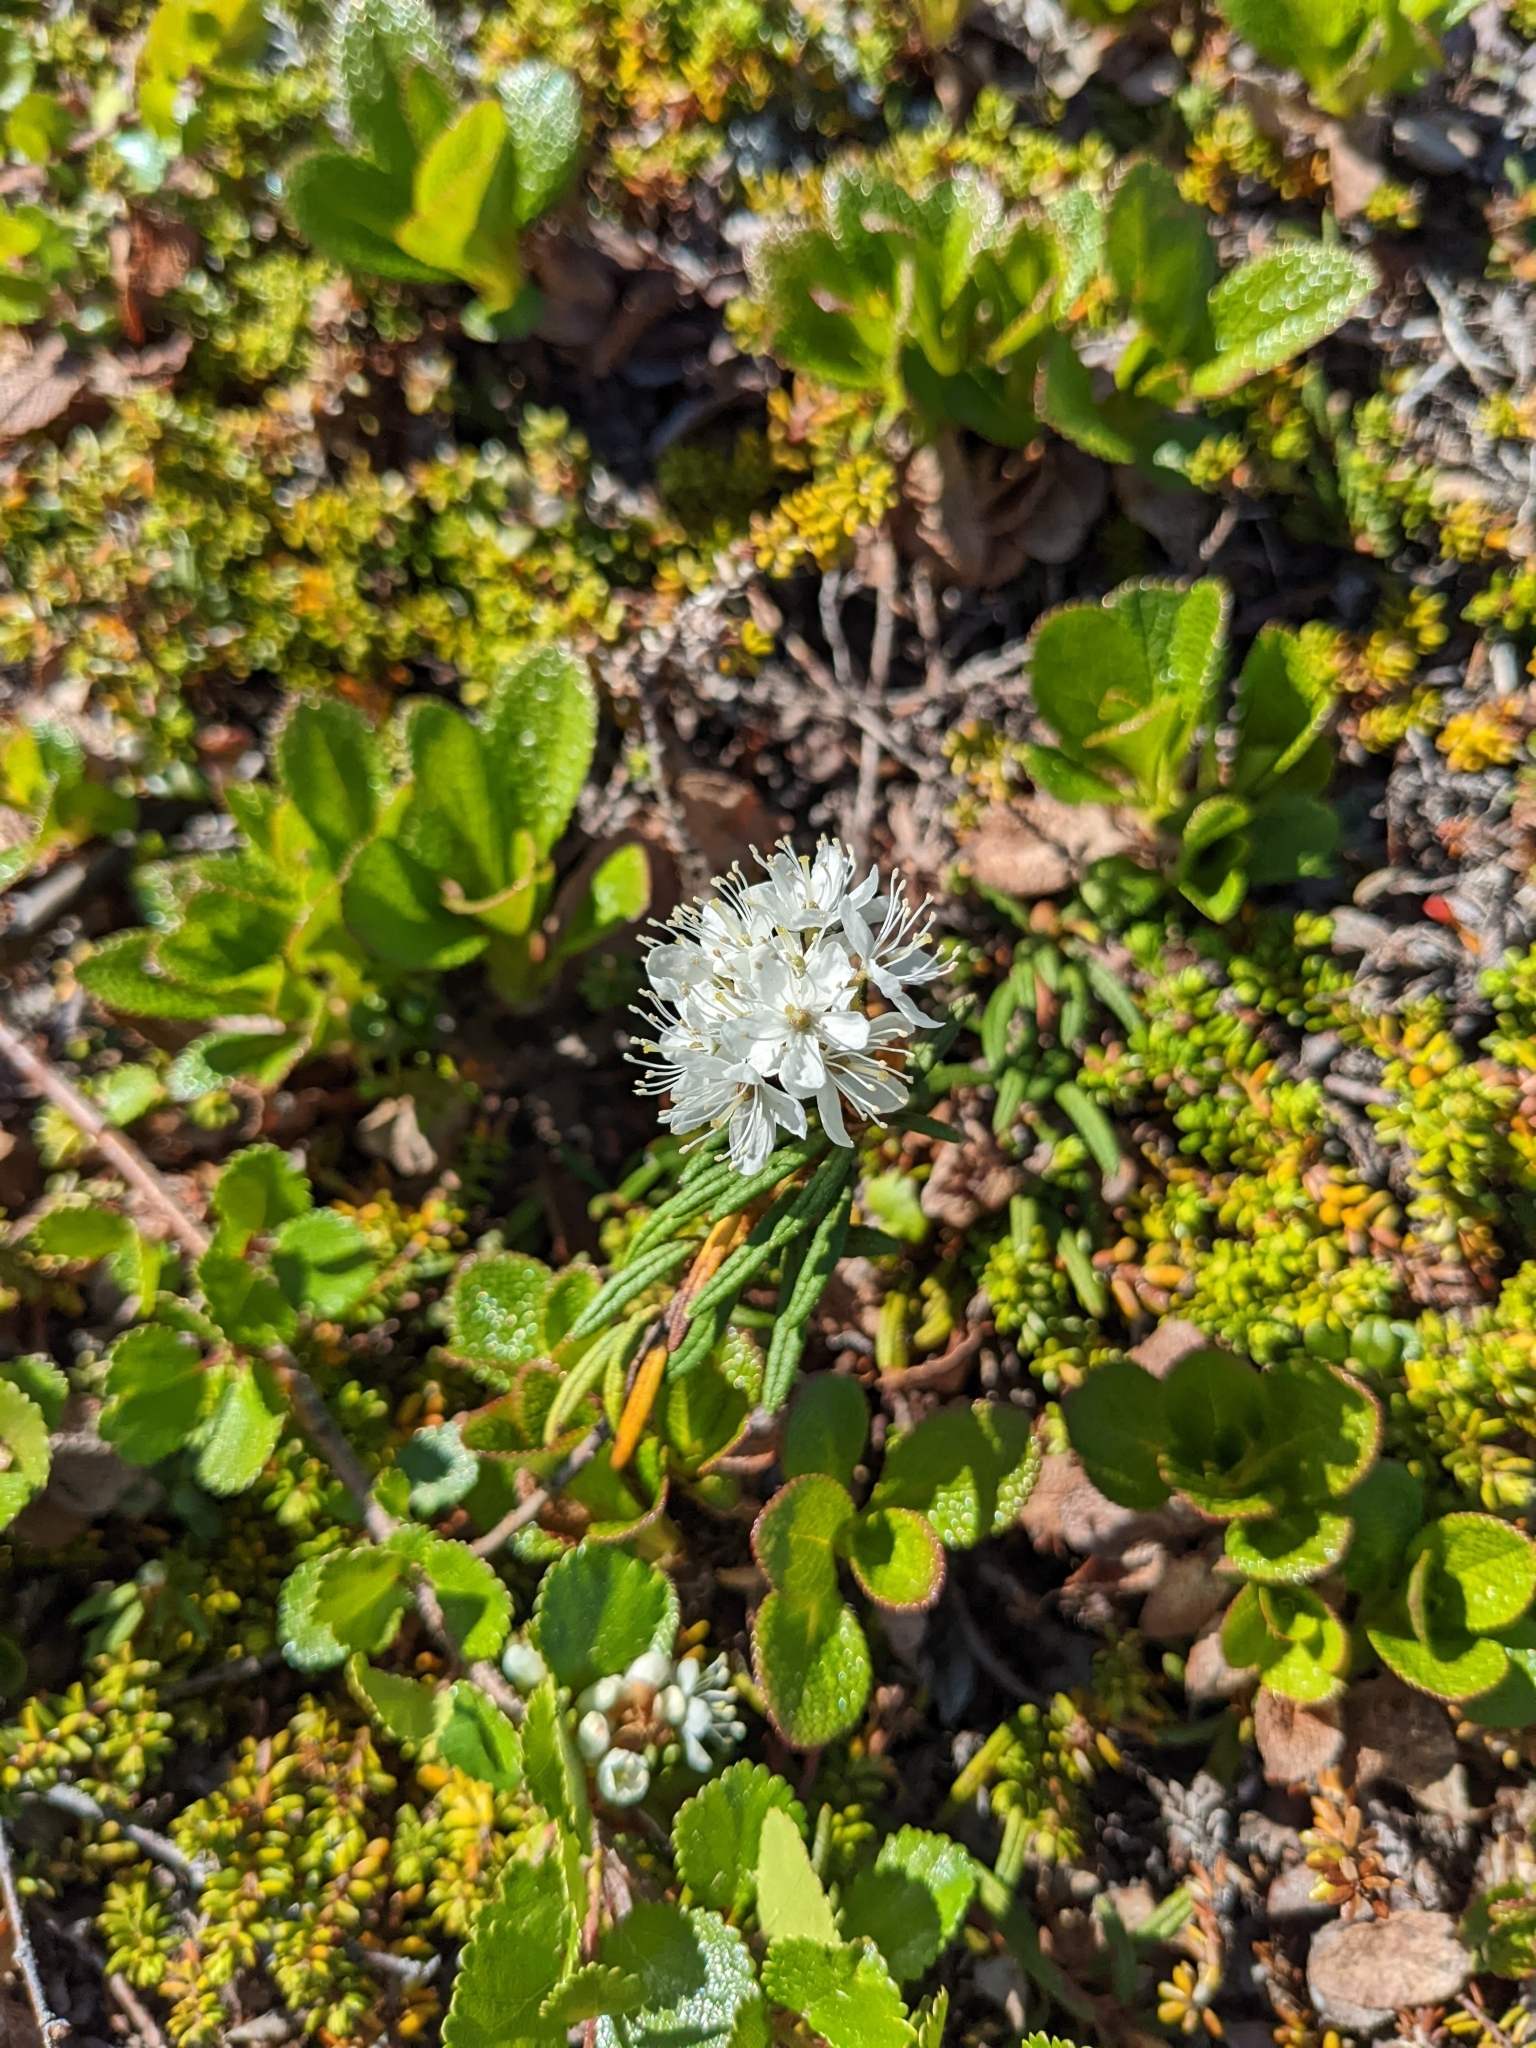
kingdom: Plantae
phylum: Tracheophyta
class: Magnoliopsida
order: Ericales
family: Ericaceae
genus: Rhododendron
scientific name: Rhododendron groenlandicum
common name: Bog labrador tea
